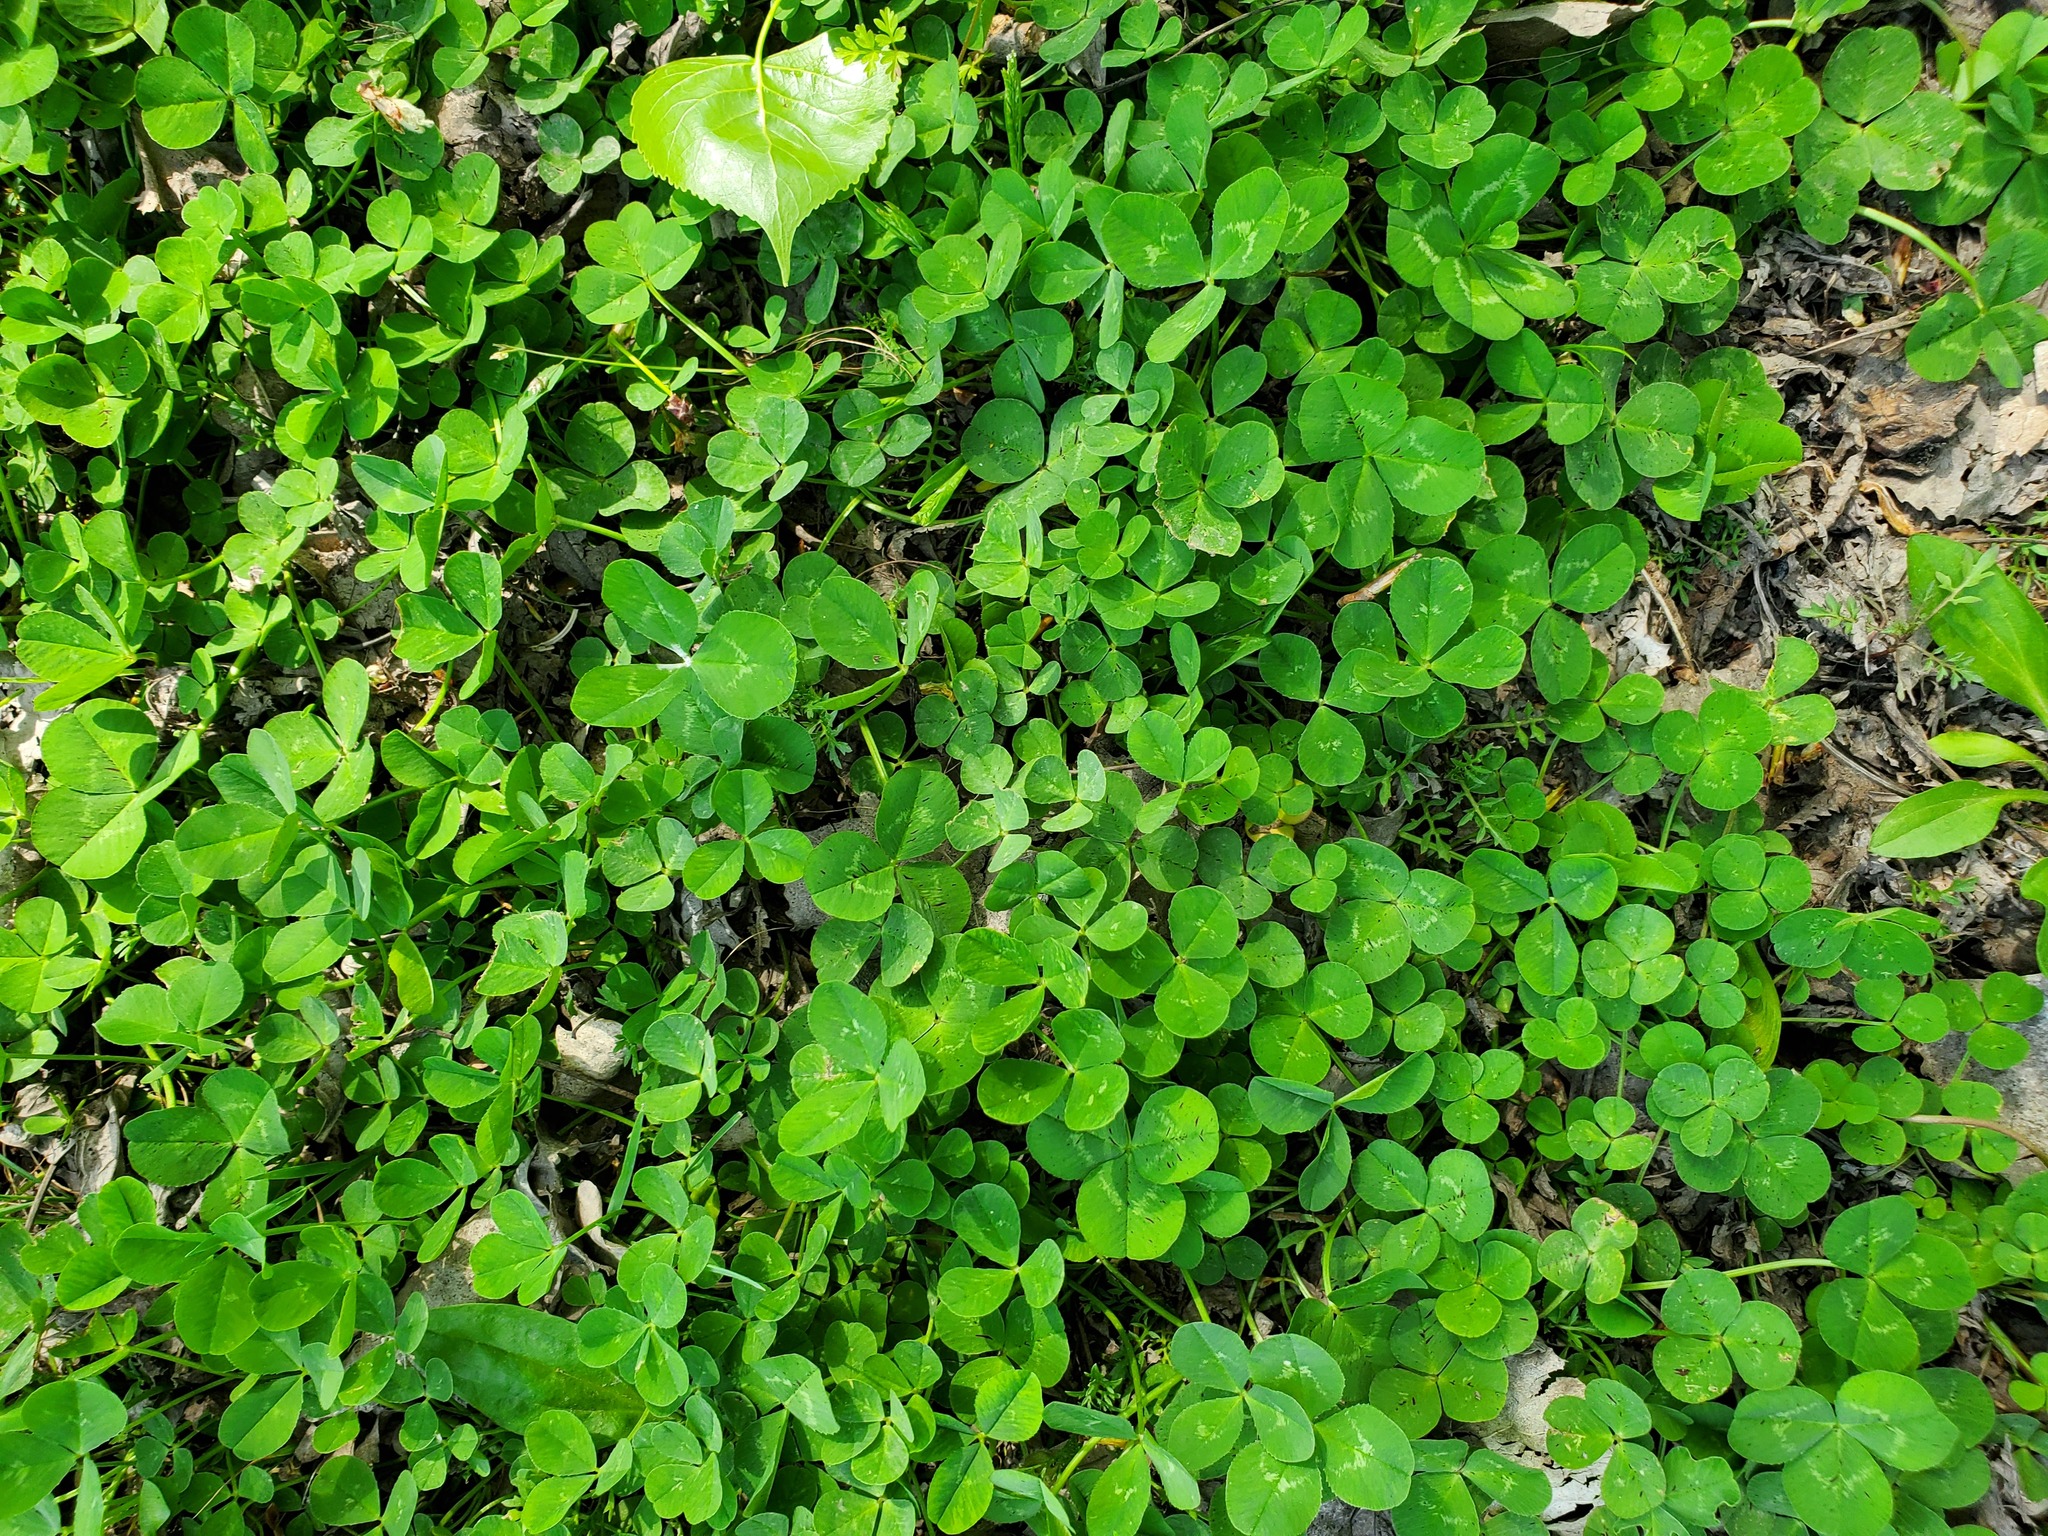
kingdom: Plantae
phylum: Tracheophyta
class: Magnoliopsida
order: Fabales
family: Fabaceae
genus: Trifolium
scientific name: Trifolium repens
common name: White clover
